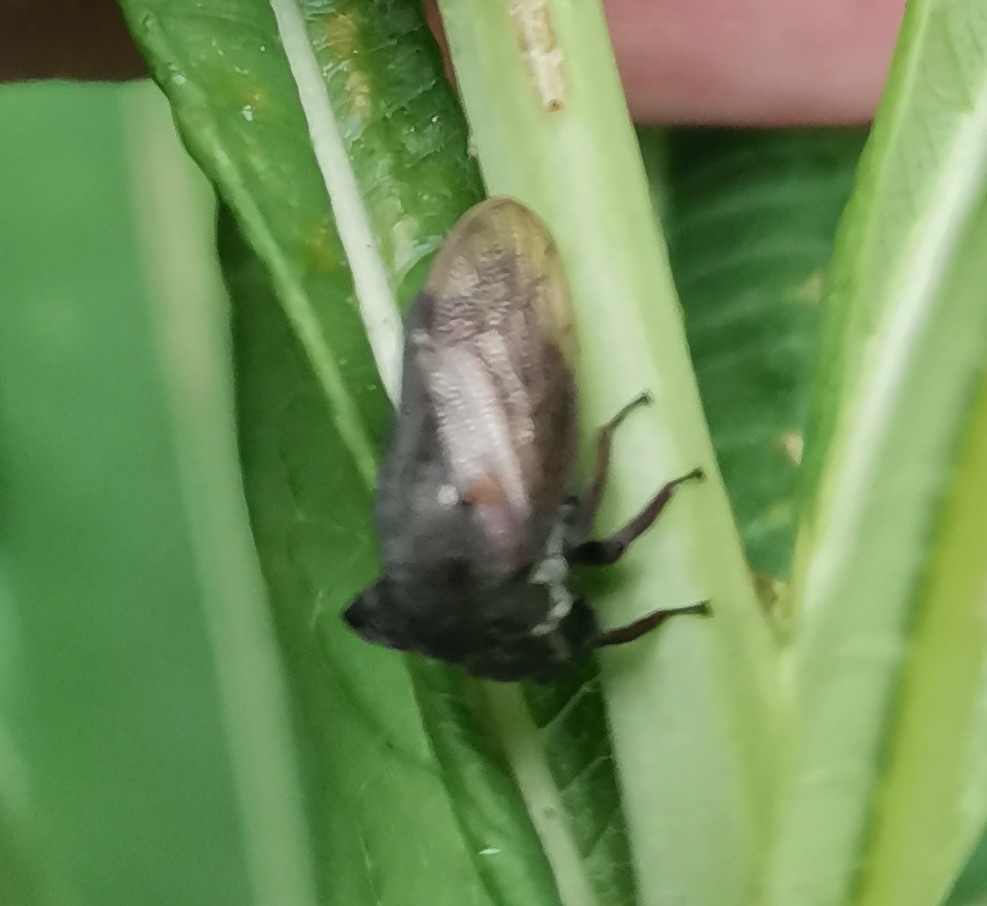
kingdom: Animalia
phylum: Arthropoda
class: Insecta
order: Hemiptera
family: Membracidae
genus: Centrotus
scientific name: Centrotus cornuta
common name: Treehopper
